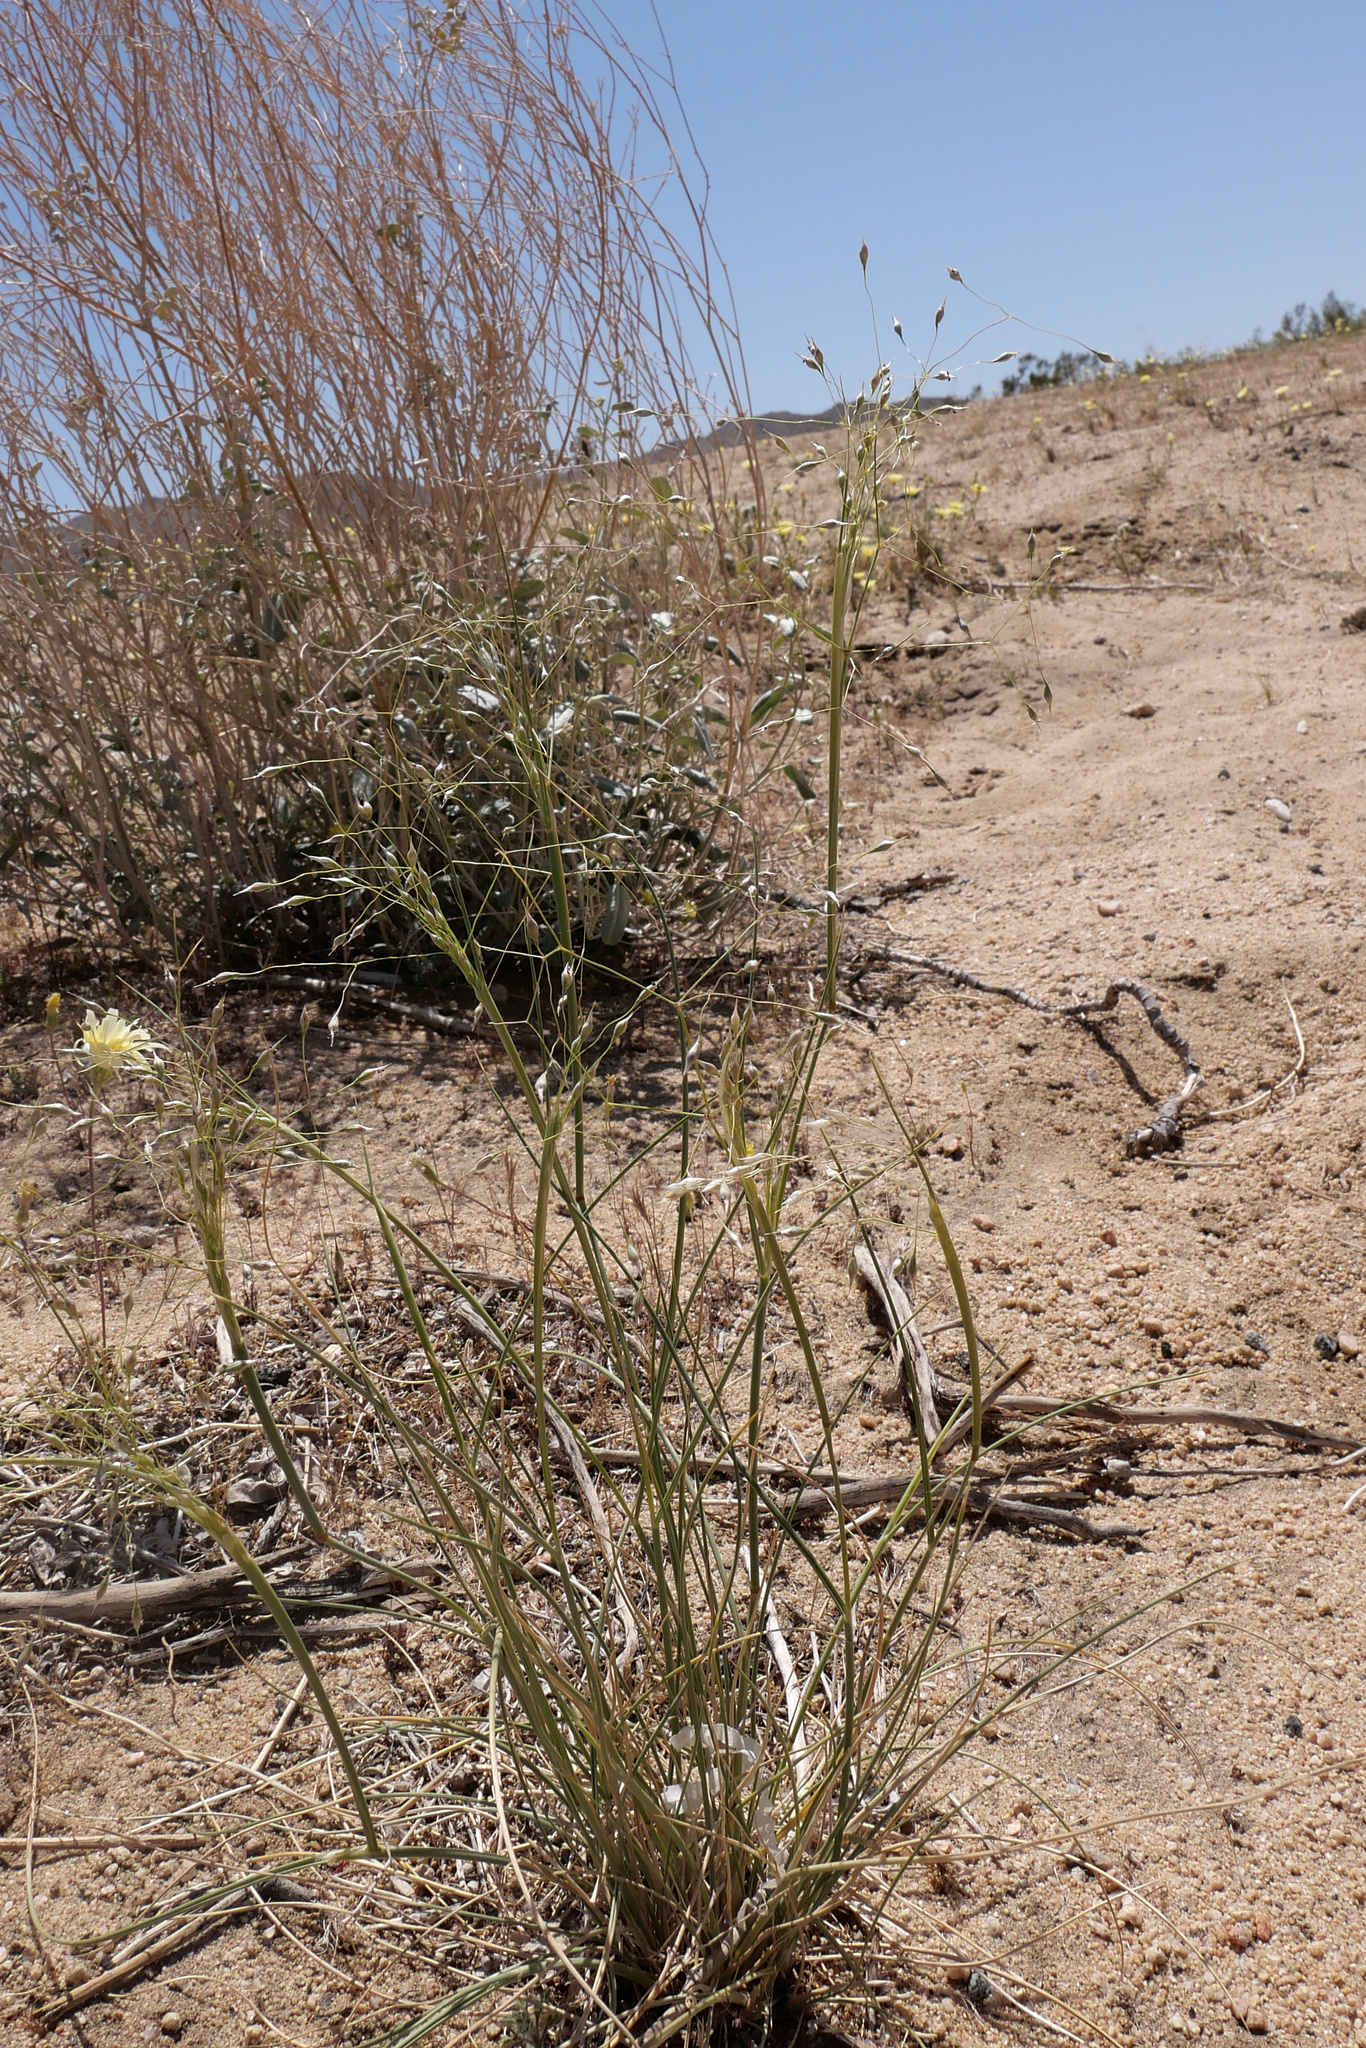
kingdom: Plantae
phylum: Tracheophyta
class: Liliopsida
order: Poales
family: Poaceae
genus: Eriocoma
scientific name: Eriocoma hymenoides
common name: Indian mountain ricegrass
